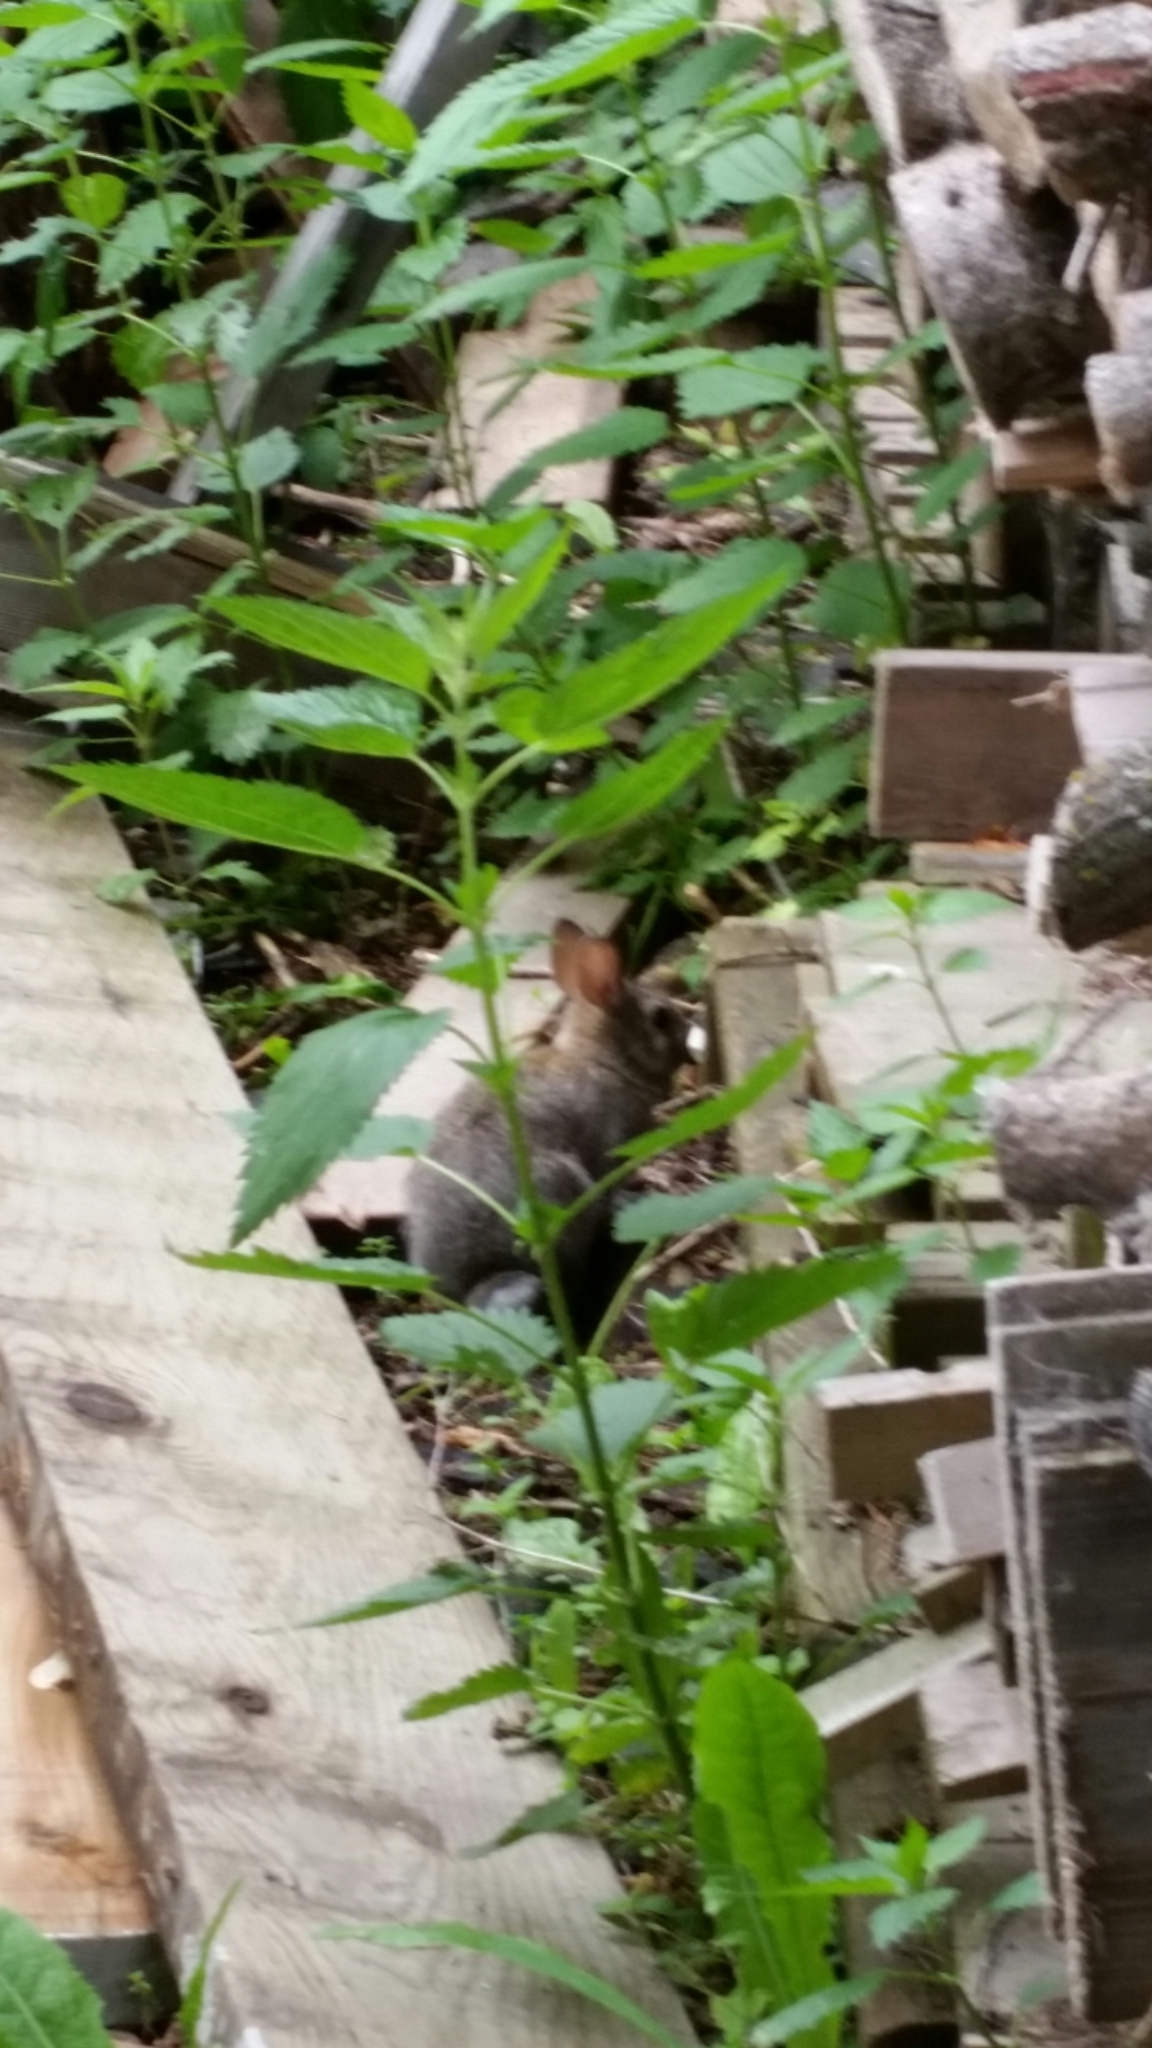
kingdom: Animalia
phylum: Chordata
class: Mammalia
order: Lagomorpha
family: Leporidae
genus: Sylvilagus
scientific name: Sylvilagus floridanus
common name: Eastern cottontail
